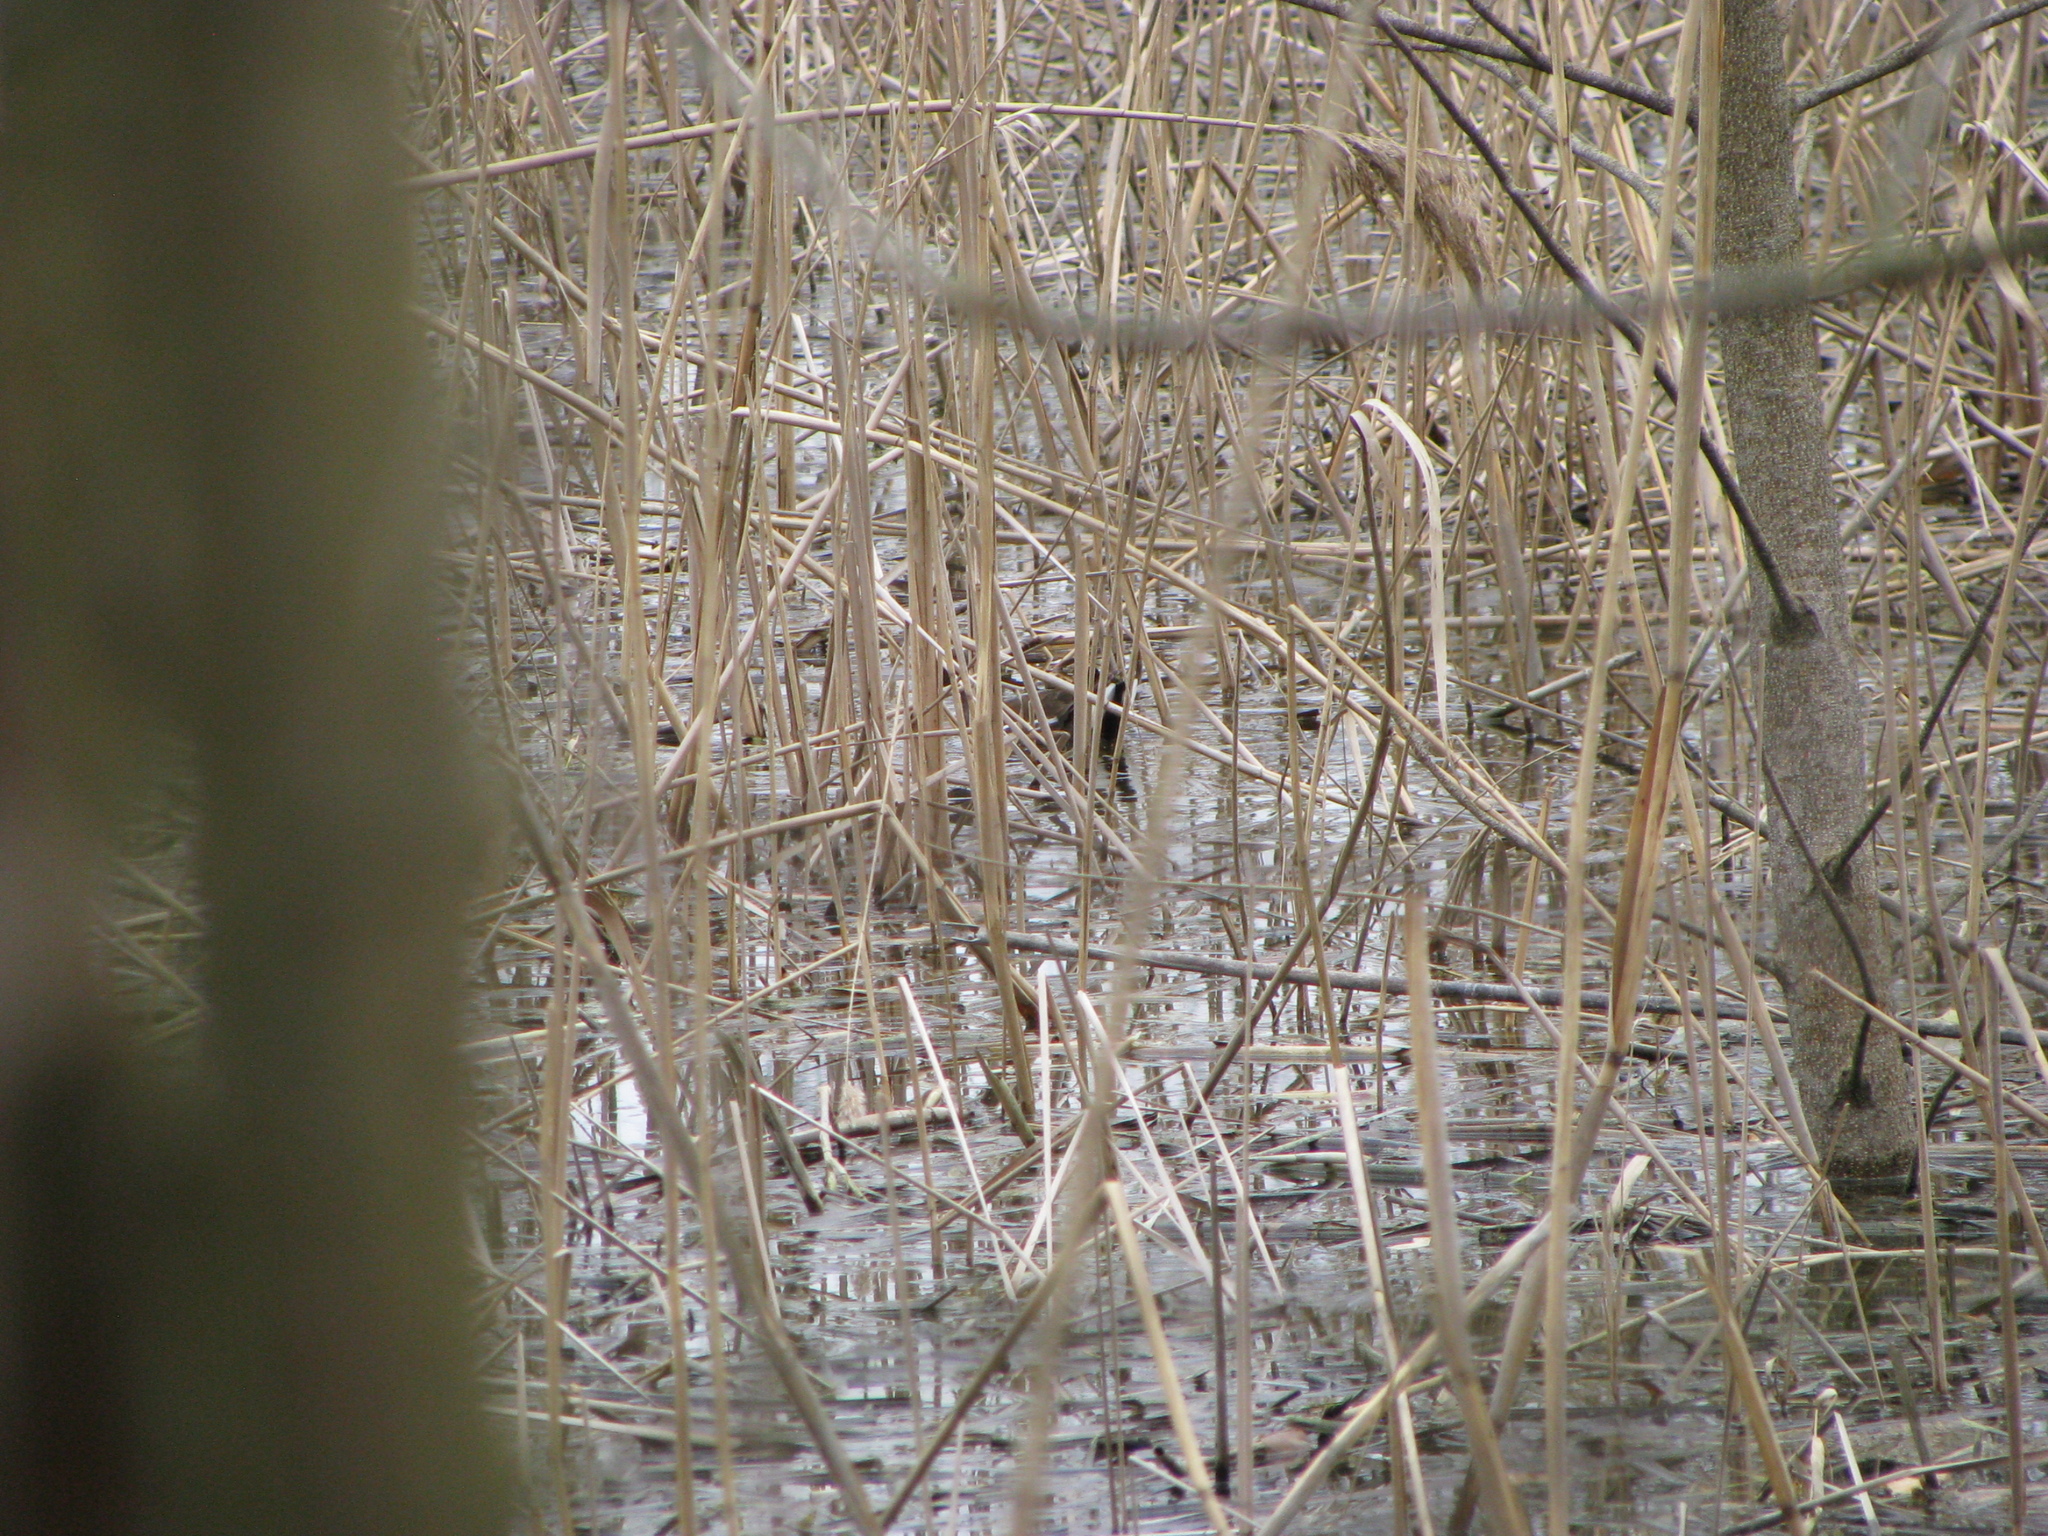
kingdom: Animalia
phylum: Chordata
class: Aves
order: Gruiformes
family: Rallidae
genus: Gallinula
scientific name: Gallinula chloropus
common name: Common moorhen
